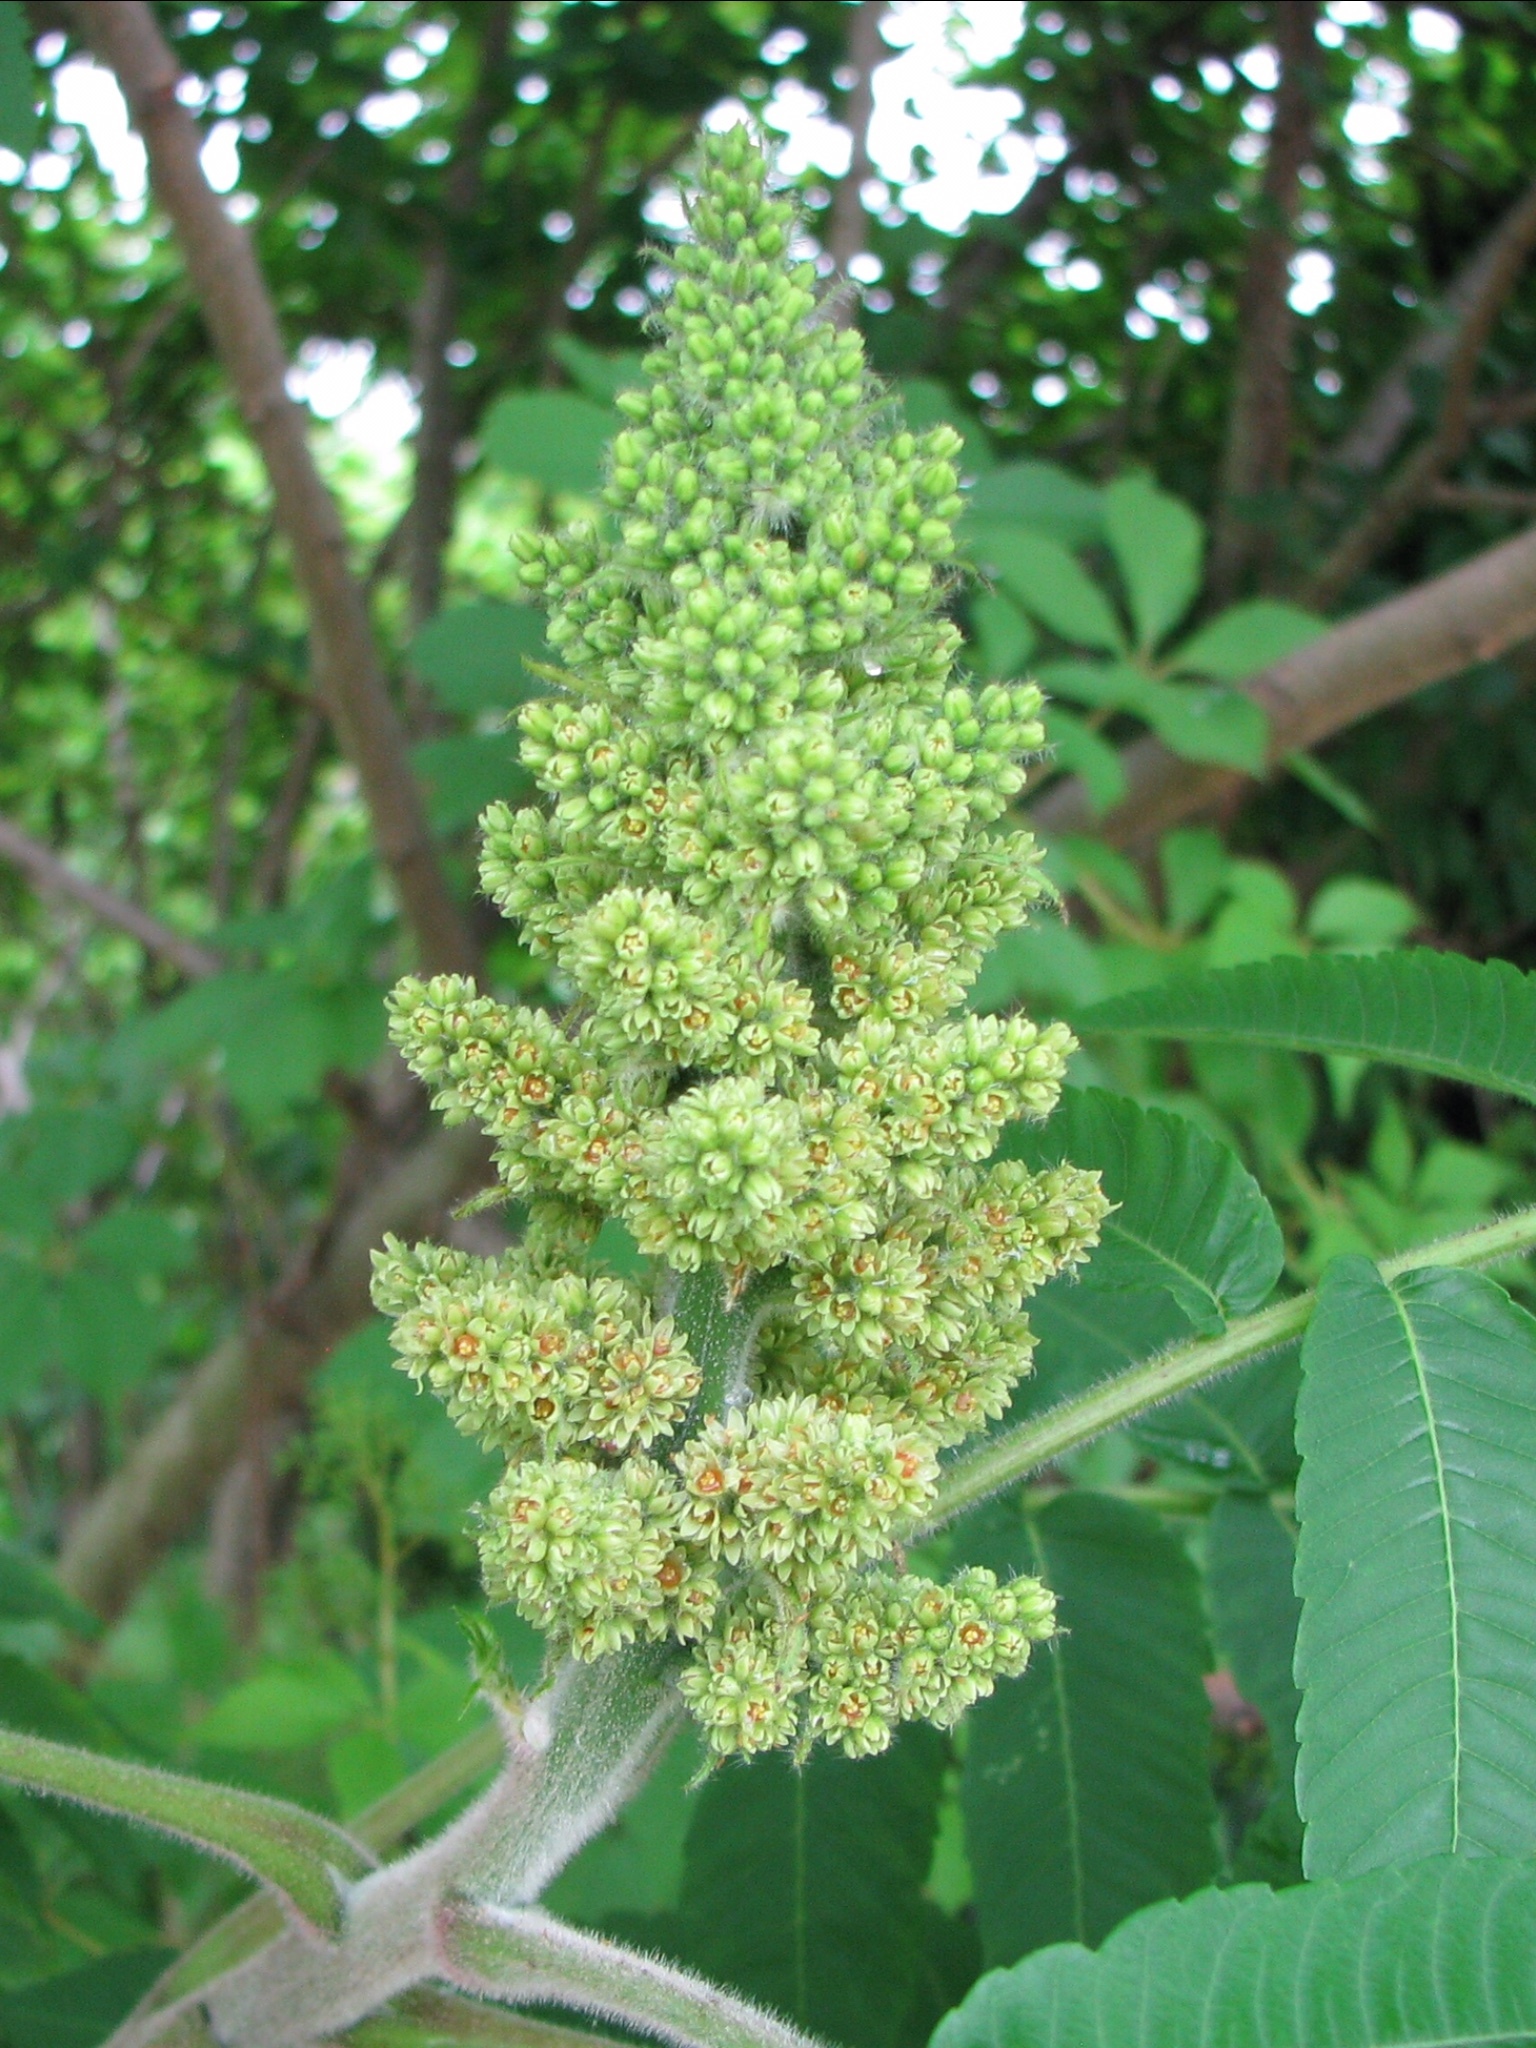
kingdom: Plantae
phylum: Tracheophyta
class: Magnoliopsida
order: Sapindales
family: Anacardiaceae
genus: Rhus
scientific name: Rhus typhina
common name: Staghorn sumac
